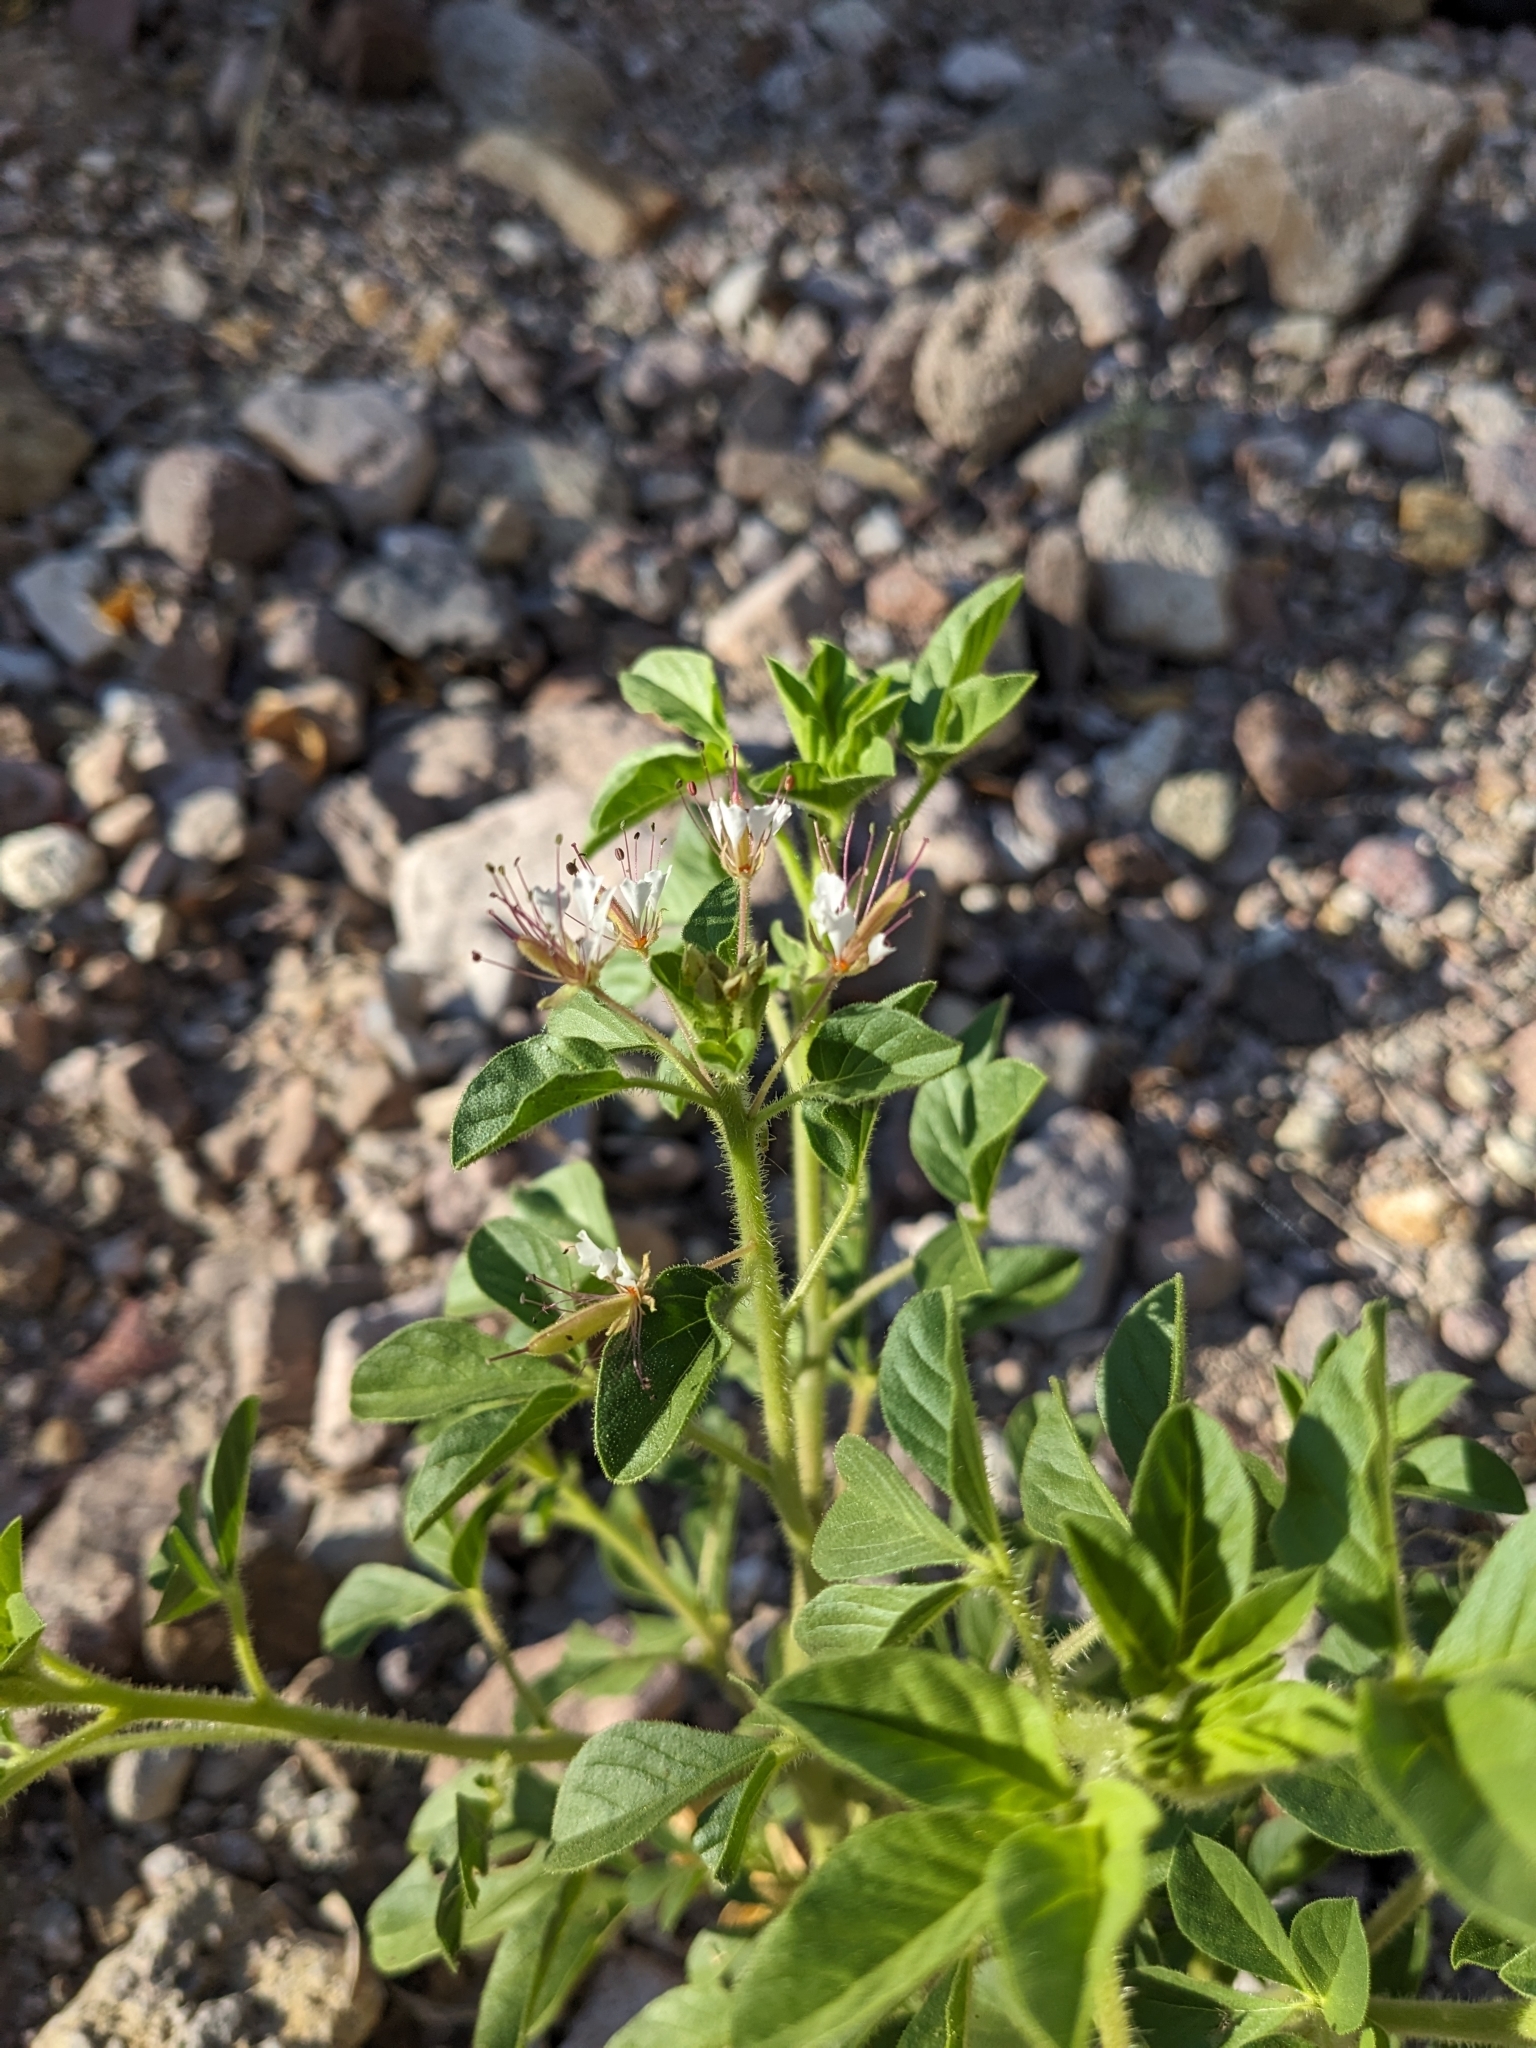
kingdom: Plantae
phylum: Tracheophyta
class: Magnoliopsida
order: Brassicales
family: Cleomaceae
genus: Polanisia
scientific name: Polanisia dodecandra
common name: Clammyweed
